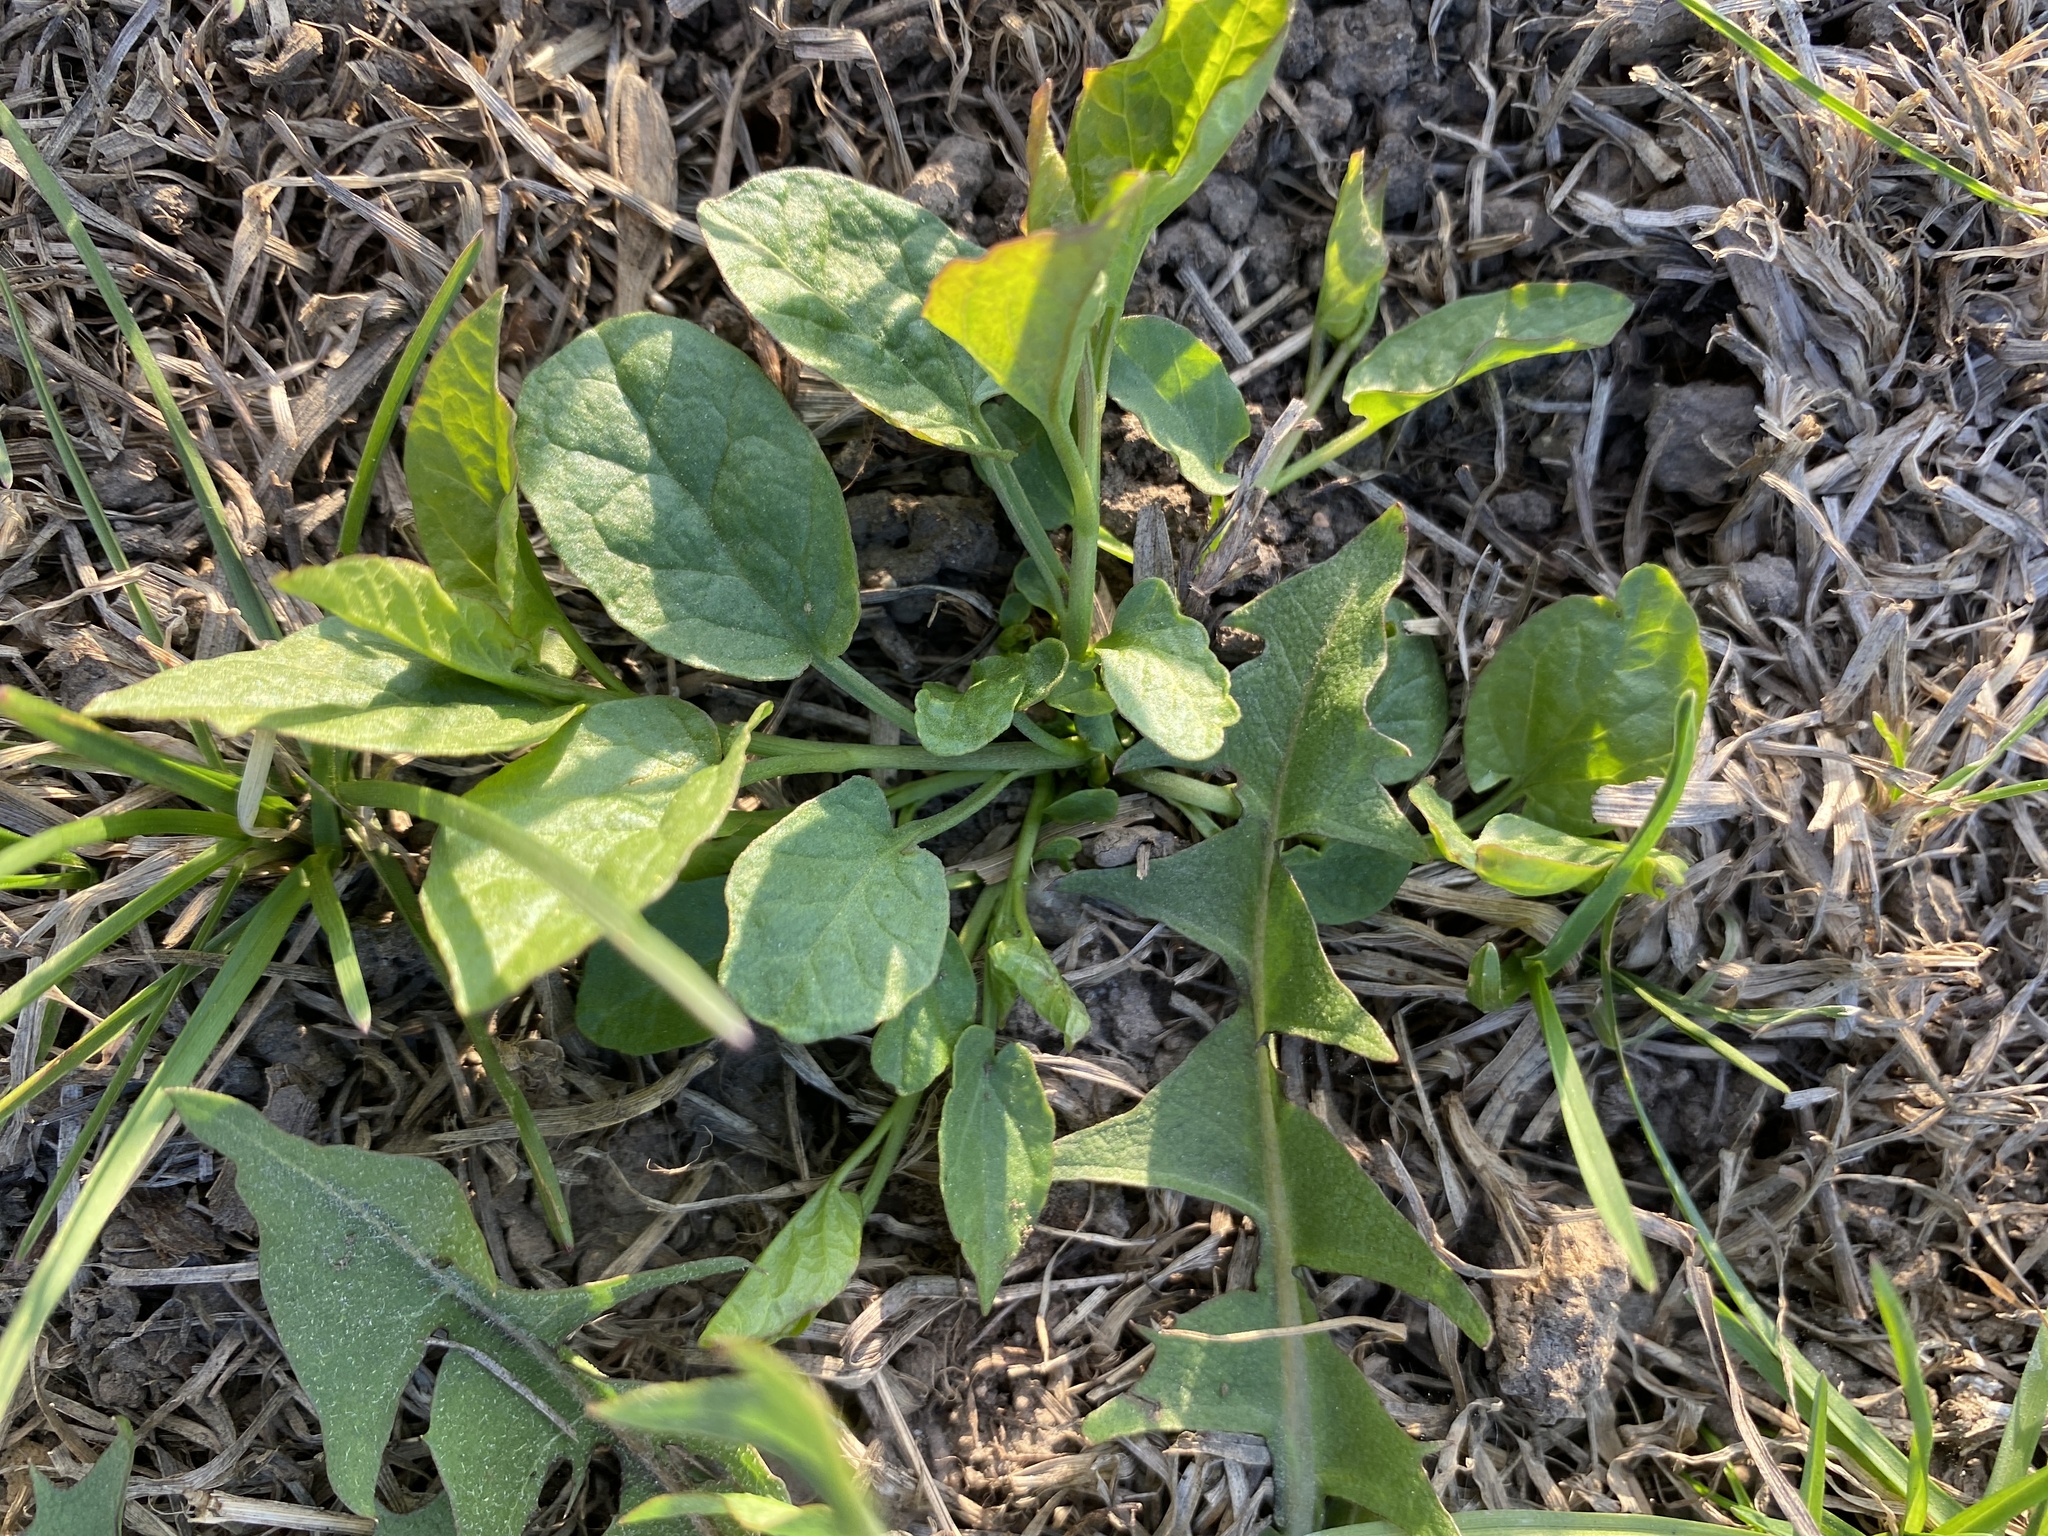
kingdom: Plantae
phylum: Tracheophyta
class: Magnoliopsida
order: Solanales
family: Convolvulaceae
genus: Convolvulus
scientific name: Convolvulus arvensis
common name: Field bindweed
